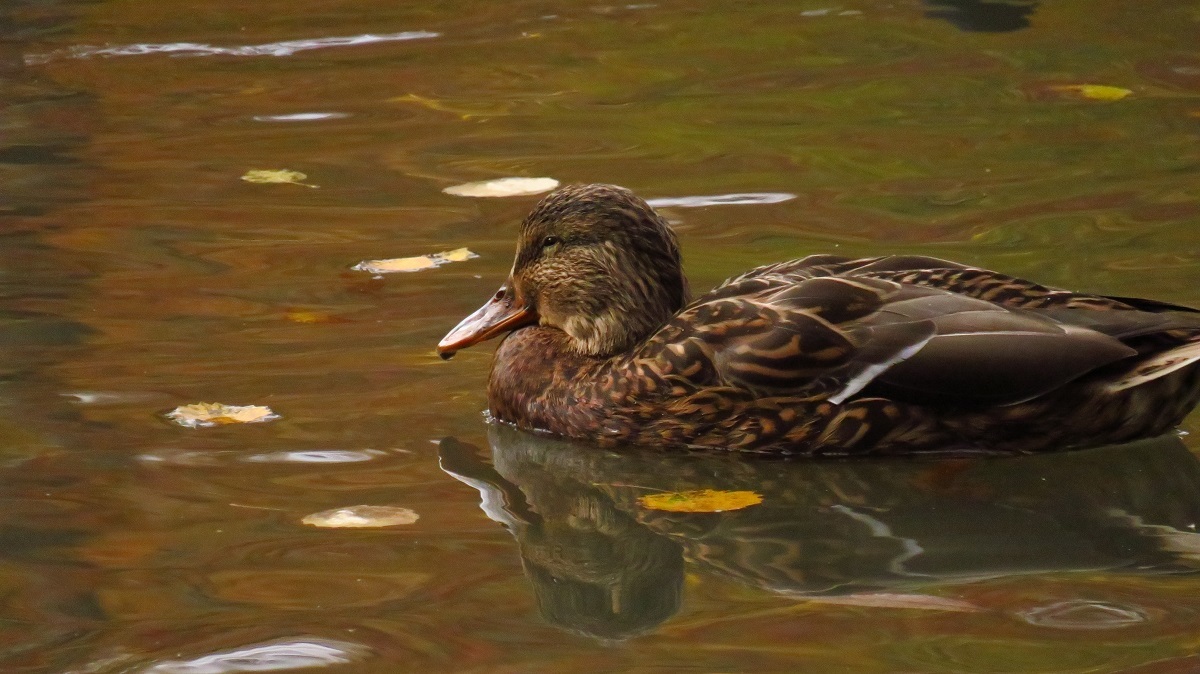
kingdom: Animalia
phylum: Chordata
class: Aves
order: Anseriformes
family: Anatidae
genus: Anas
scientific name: Anas platyrhynchos
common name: Mallard
